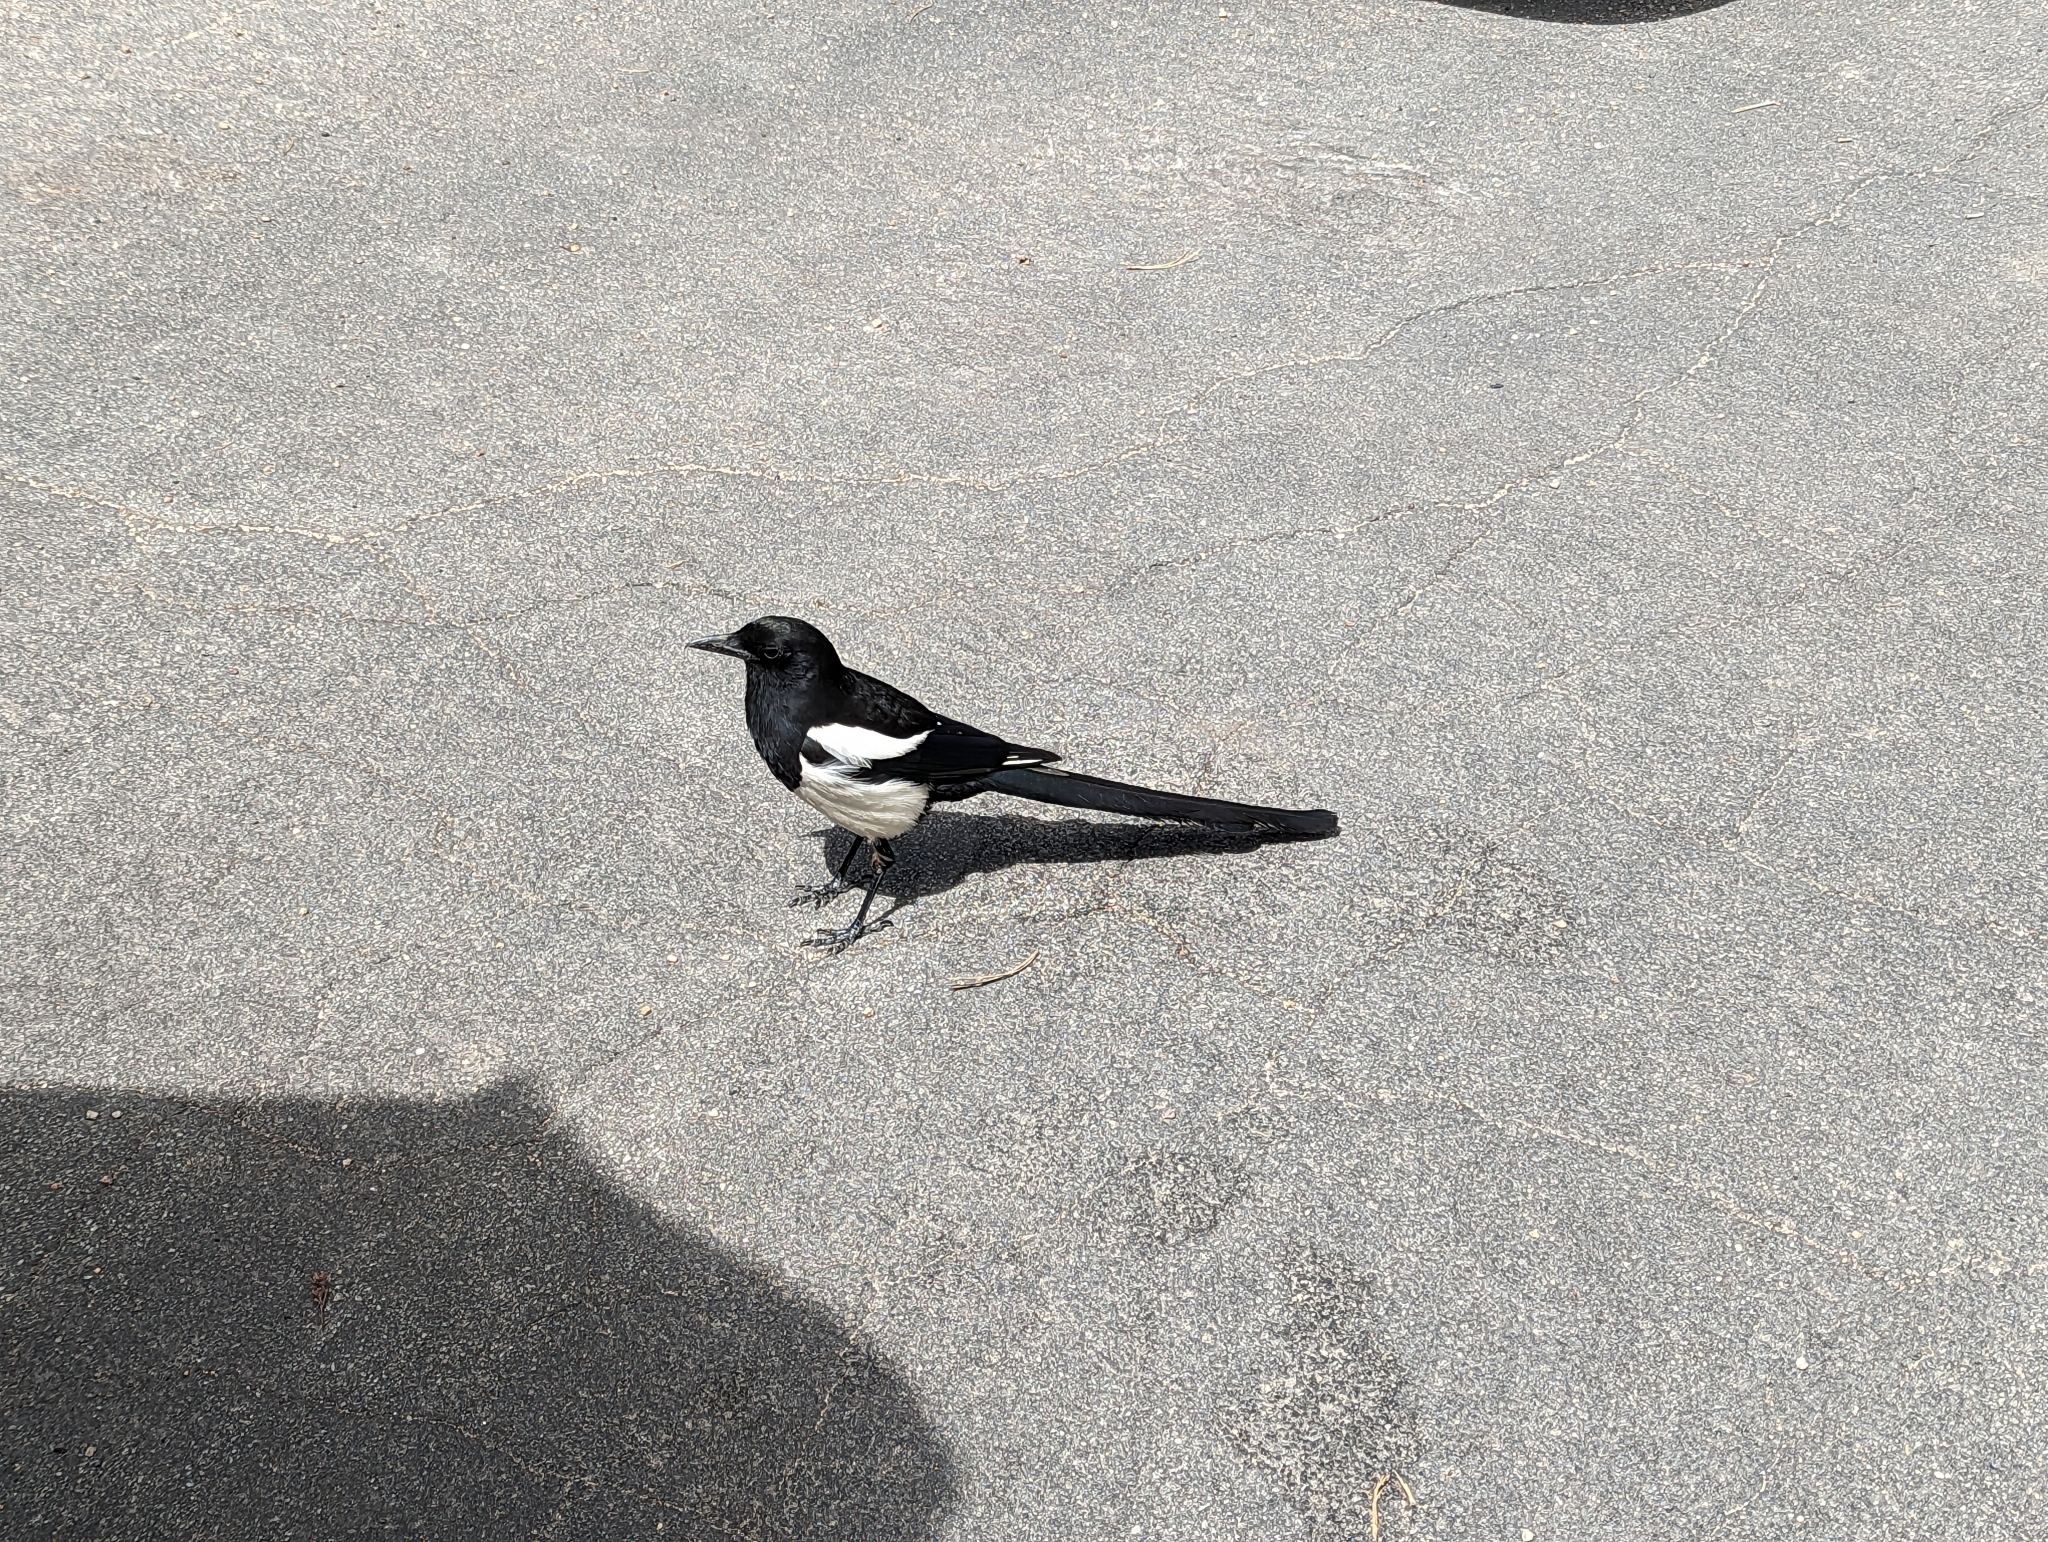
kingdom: Animalia
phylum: Chordata
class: Aves
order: Passeriformes
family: Corvidae
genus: Pica
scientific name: Pica hudsonia
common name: Black-billed magpie
